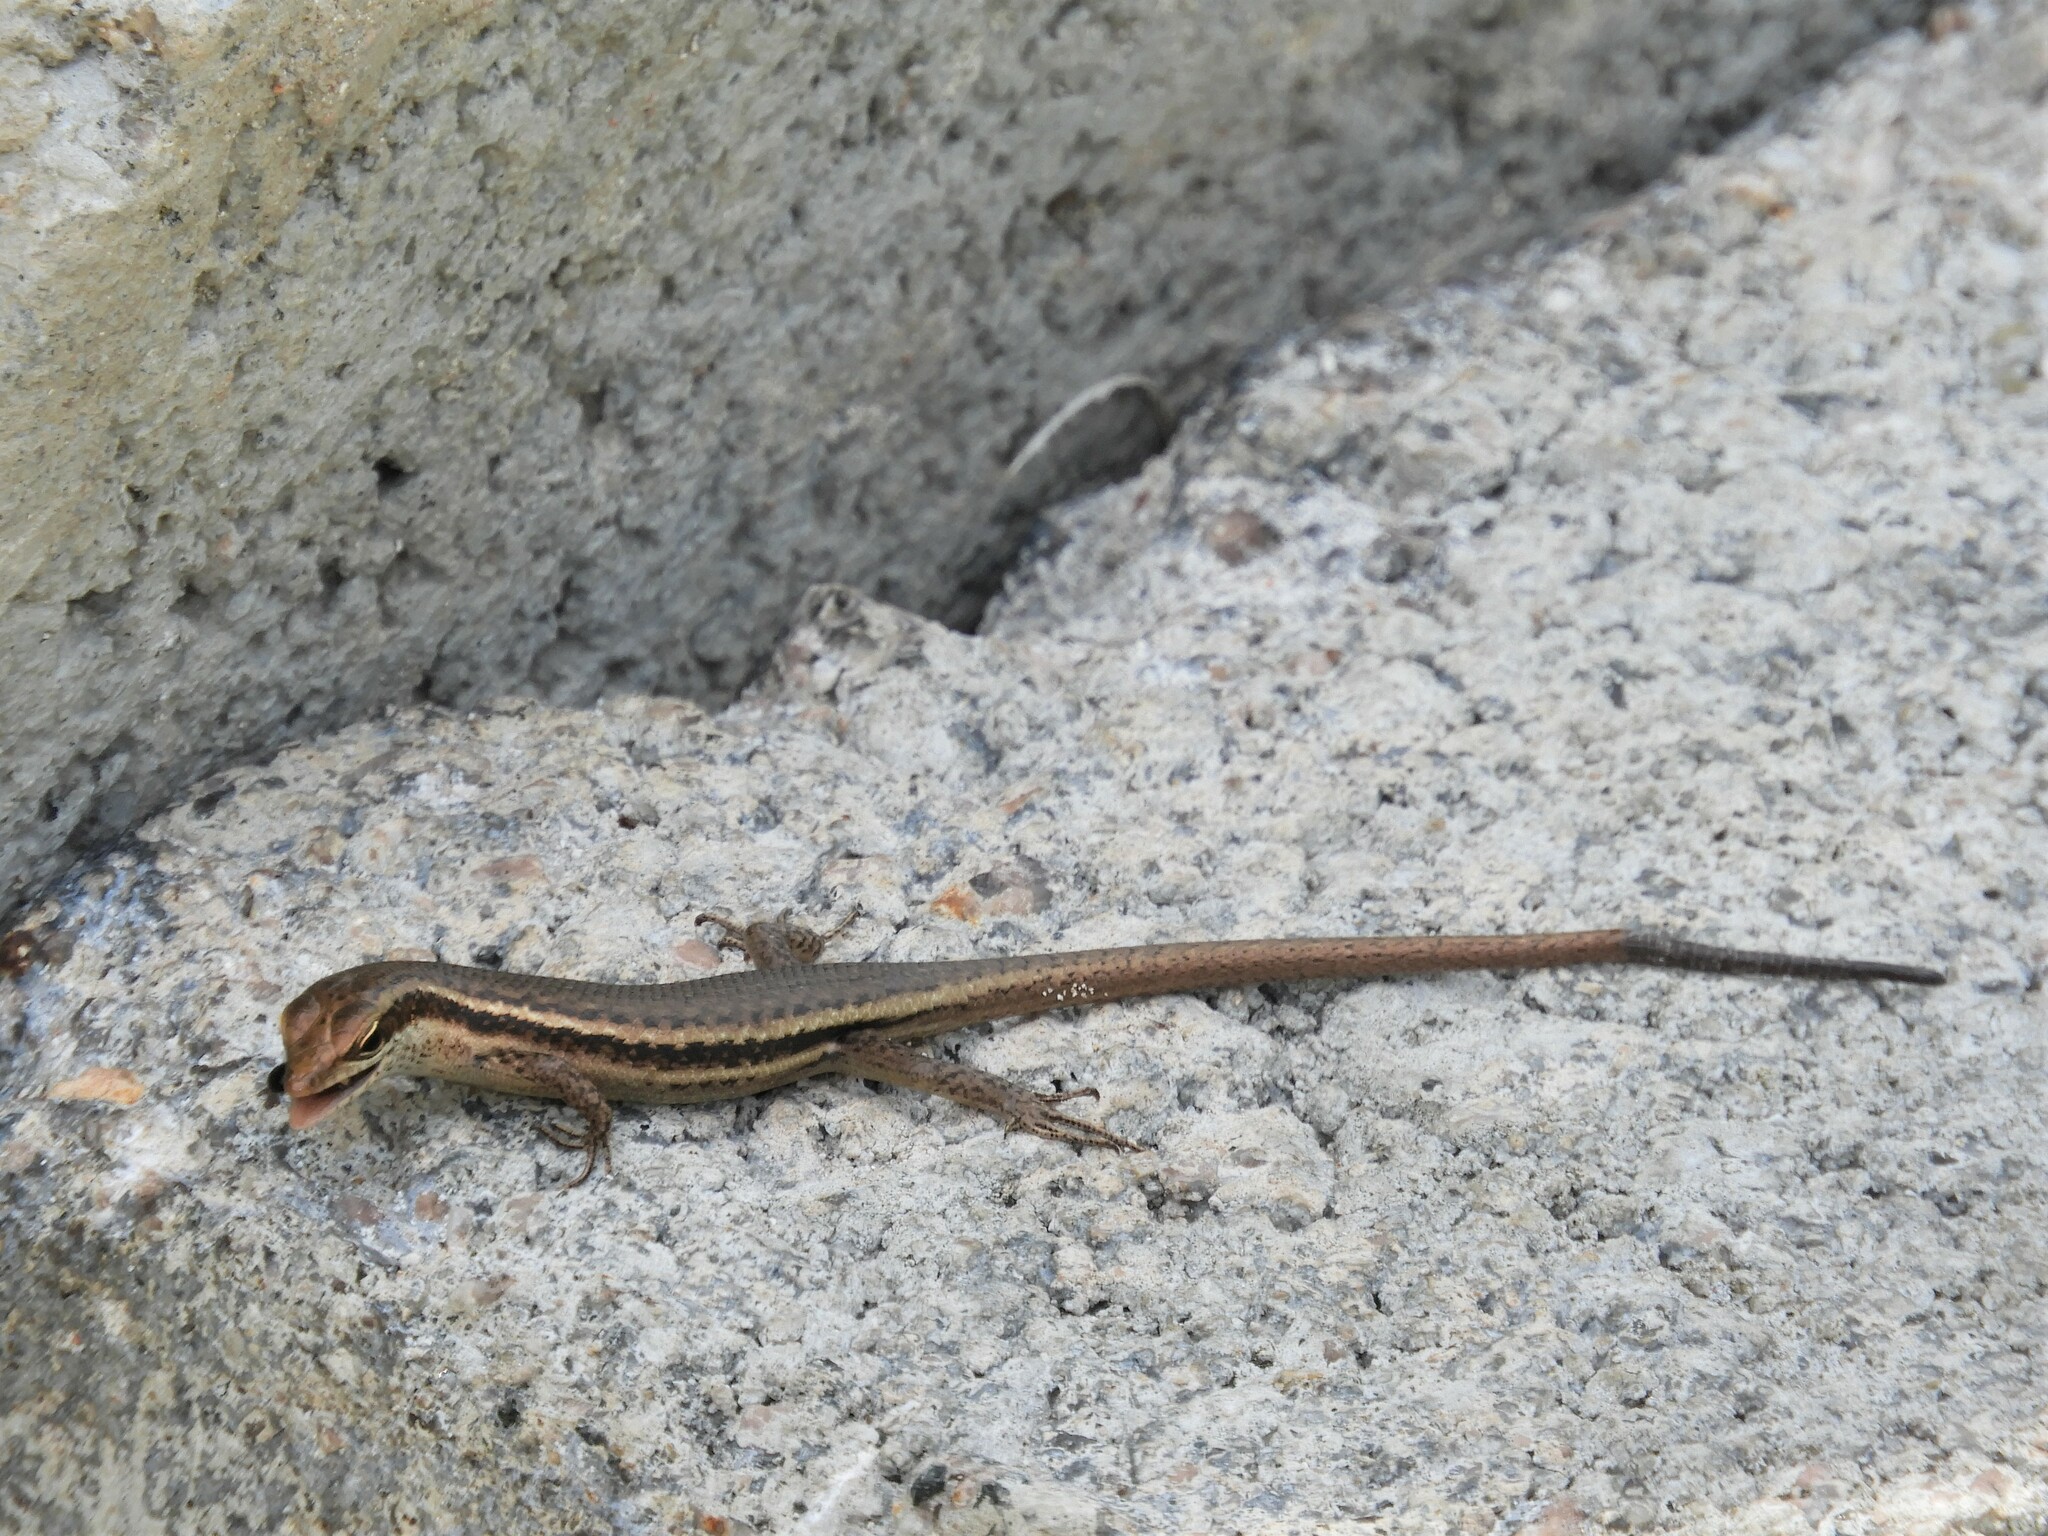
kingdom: Animalia
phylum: Chordata
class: Squamata
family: Scincidae
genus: Trachylepis
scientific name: Trachylepis sechellensis
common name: Seychelles skink
